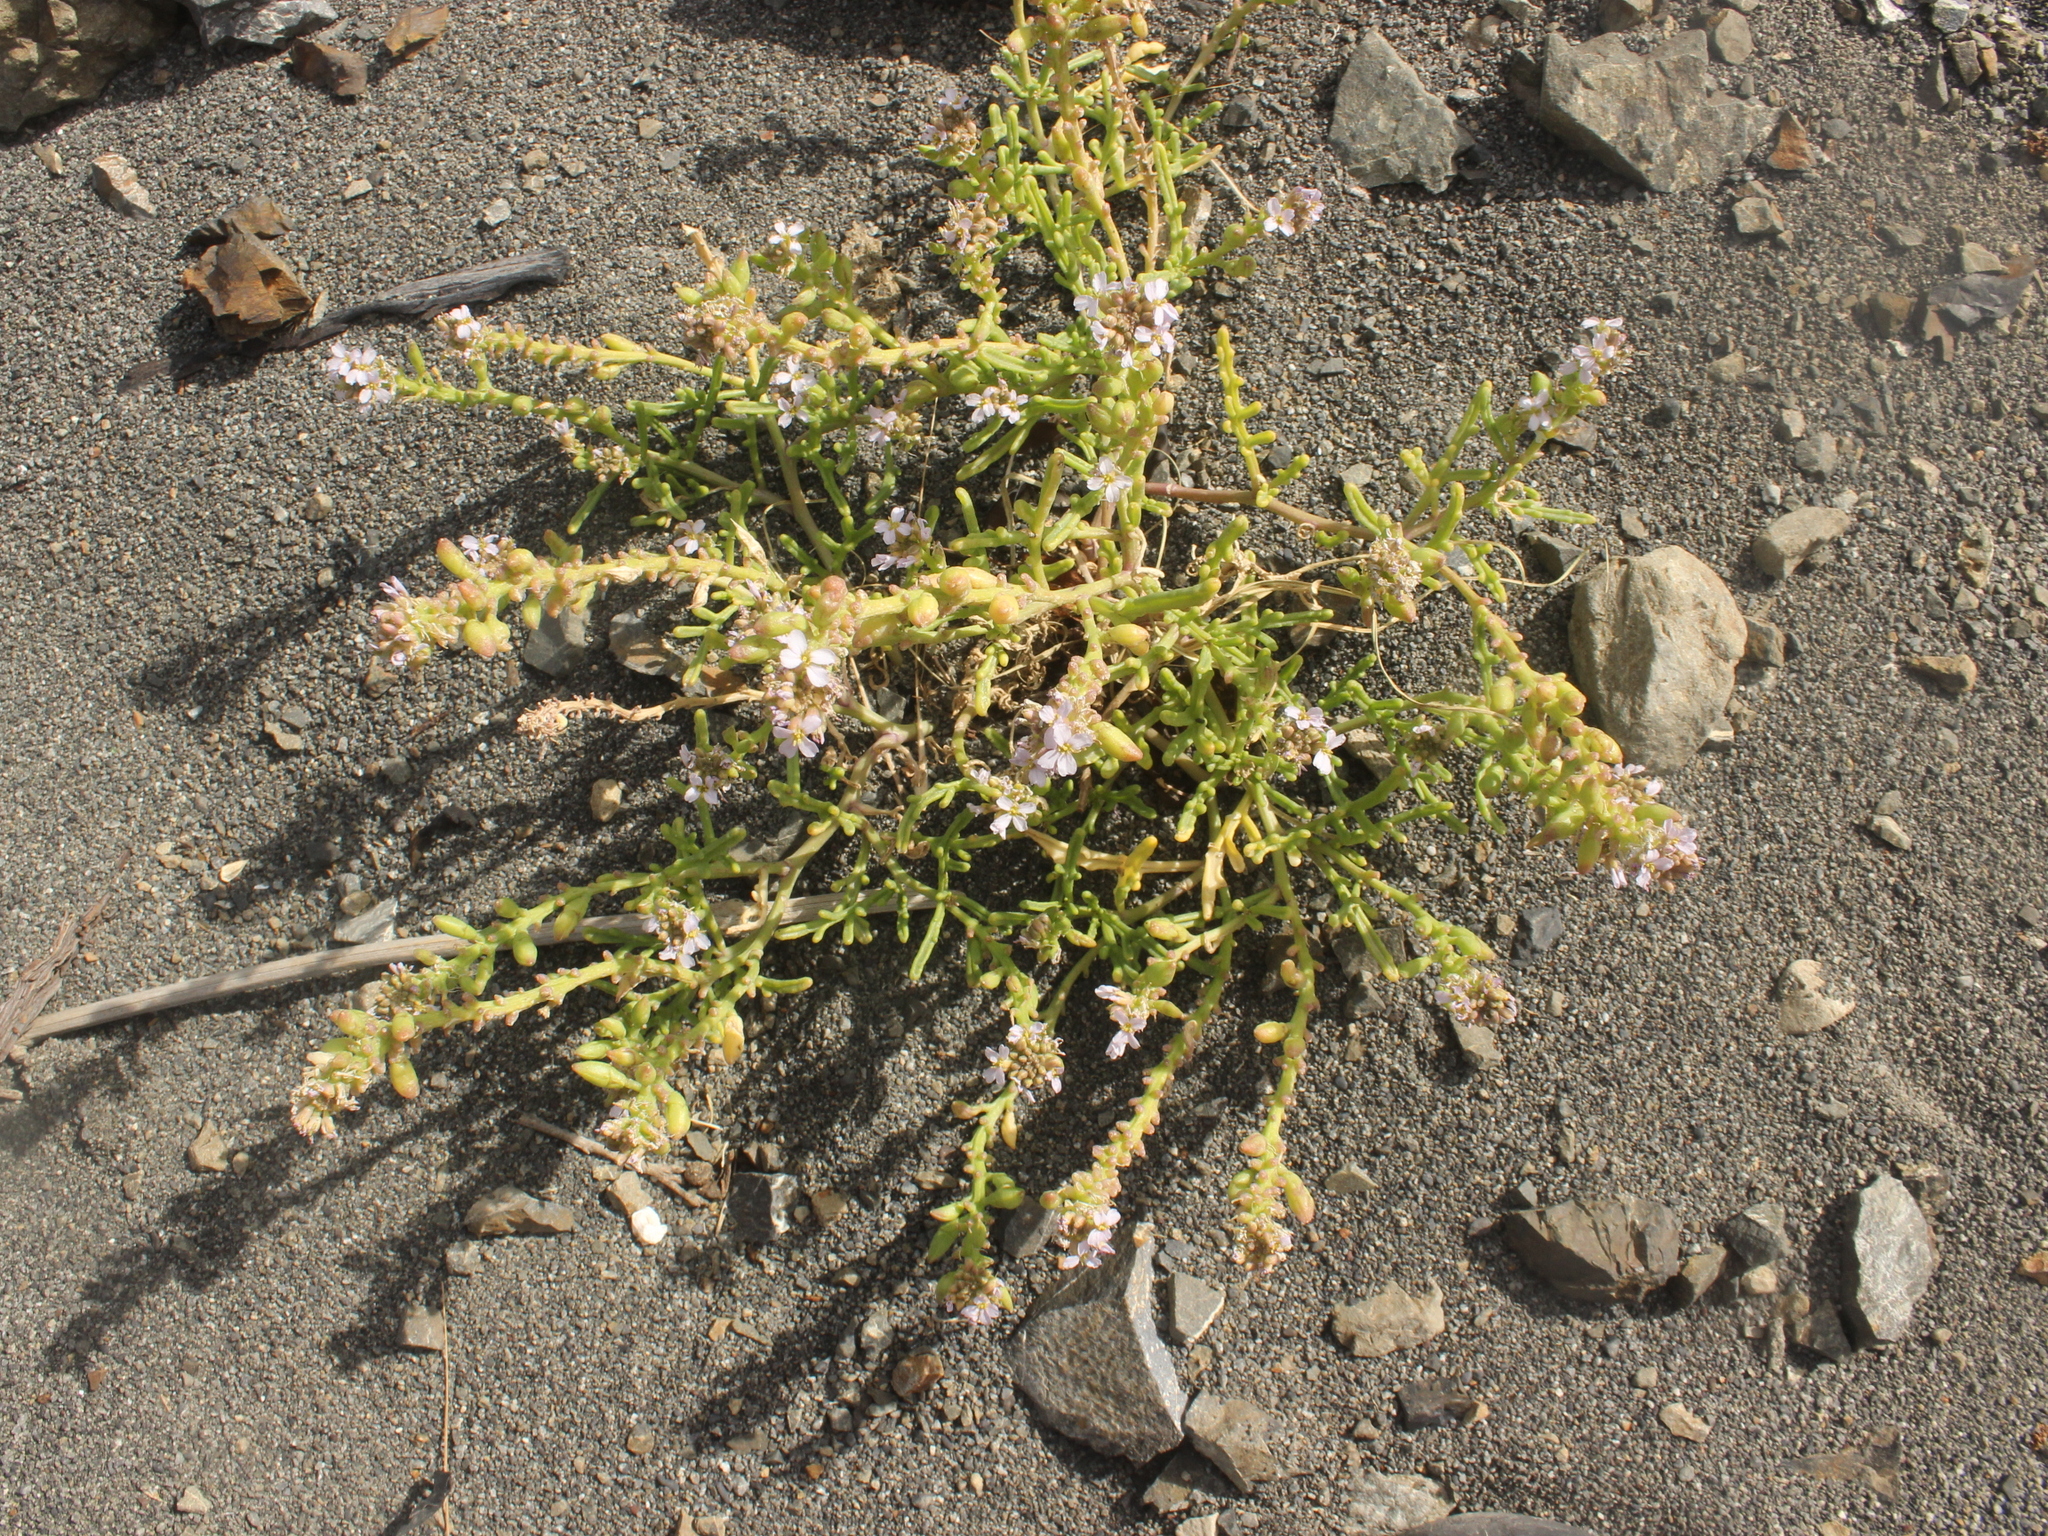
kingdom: Plantae
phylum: Tracheophyta
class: Magnoliopsida
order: Brassicales
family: Brassicaceae
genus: Cakile
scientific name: Cakile edentula
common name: American sea rocket
